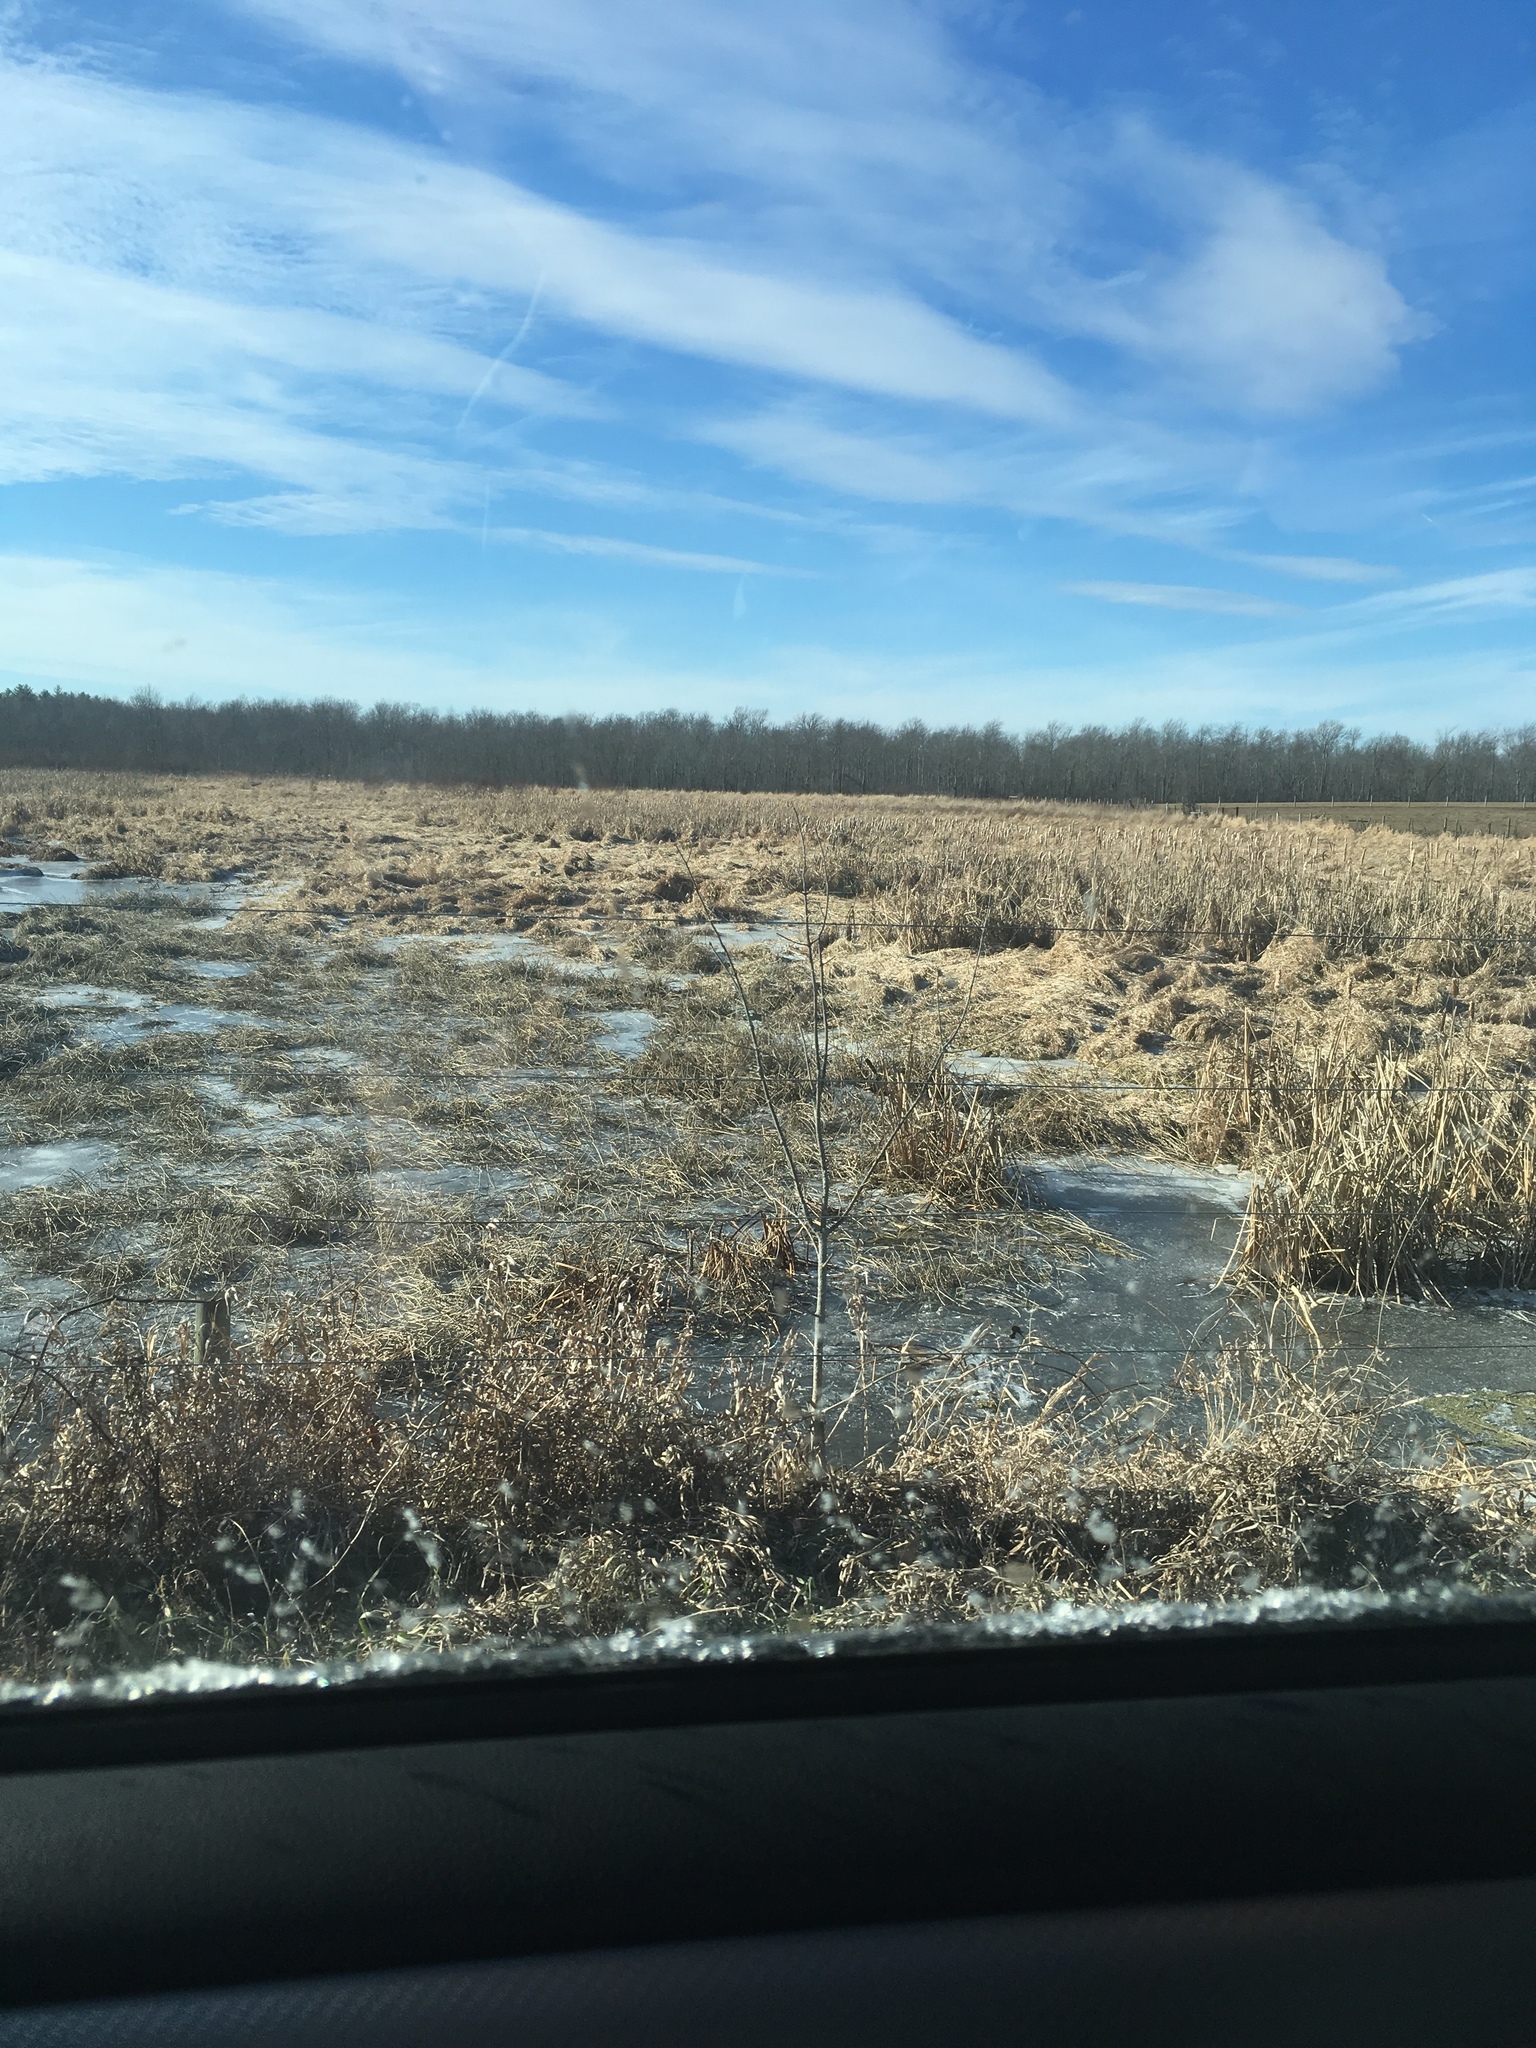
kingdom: Plantae
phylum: Tracheophyta
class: Liliopsida
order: Poales
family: Typhaceae
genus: Typha
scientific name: Typha
